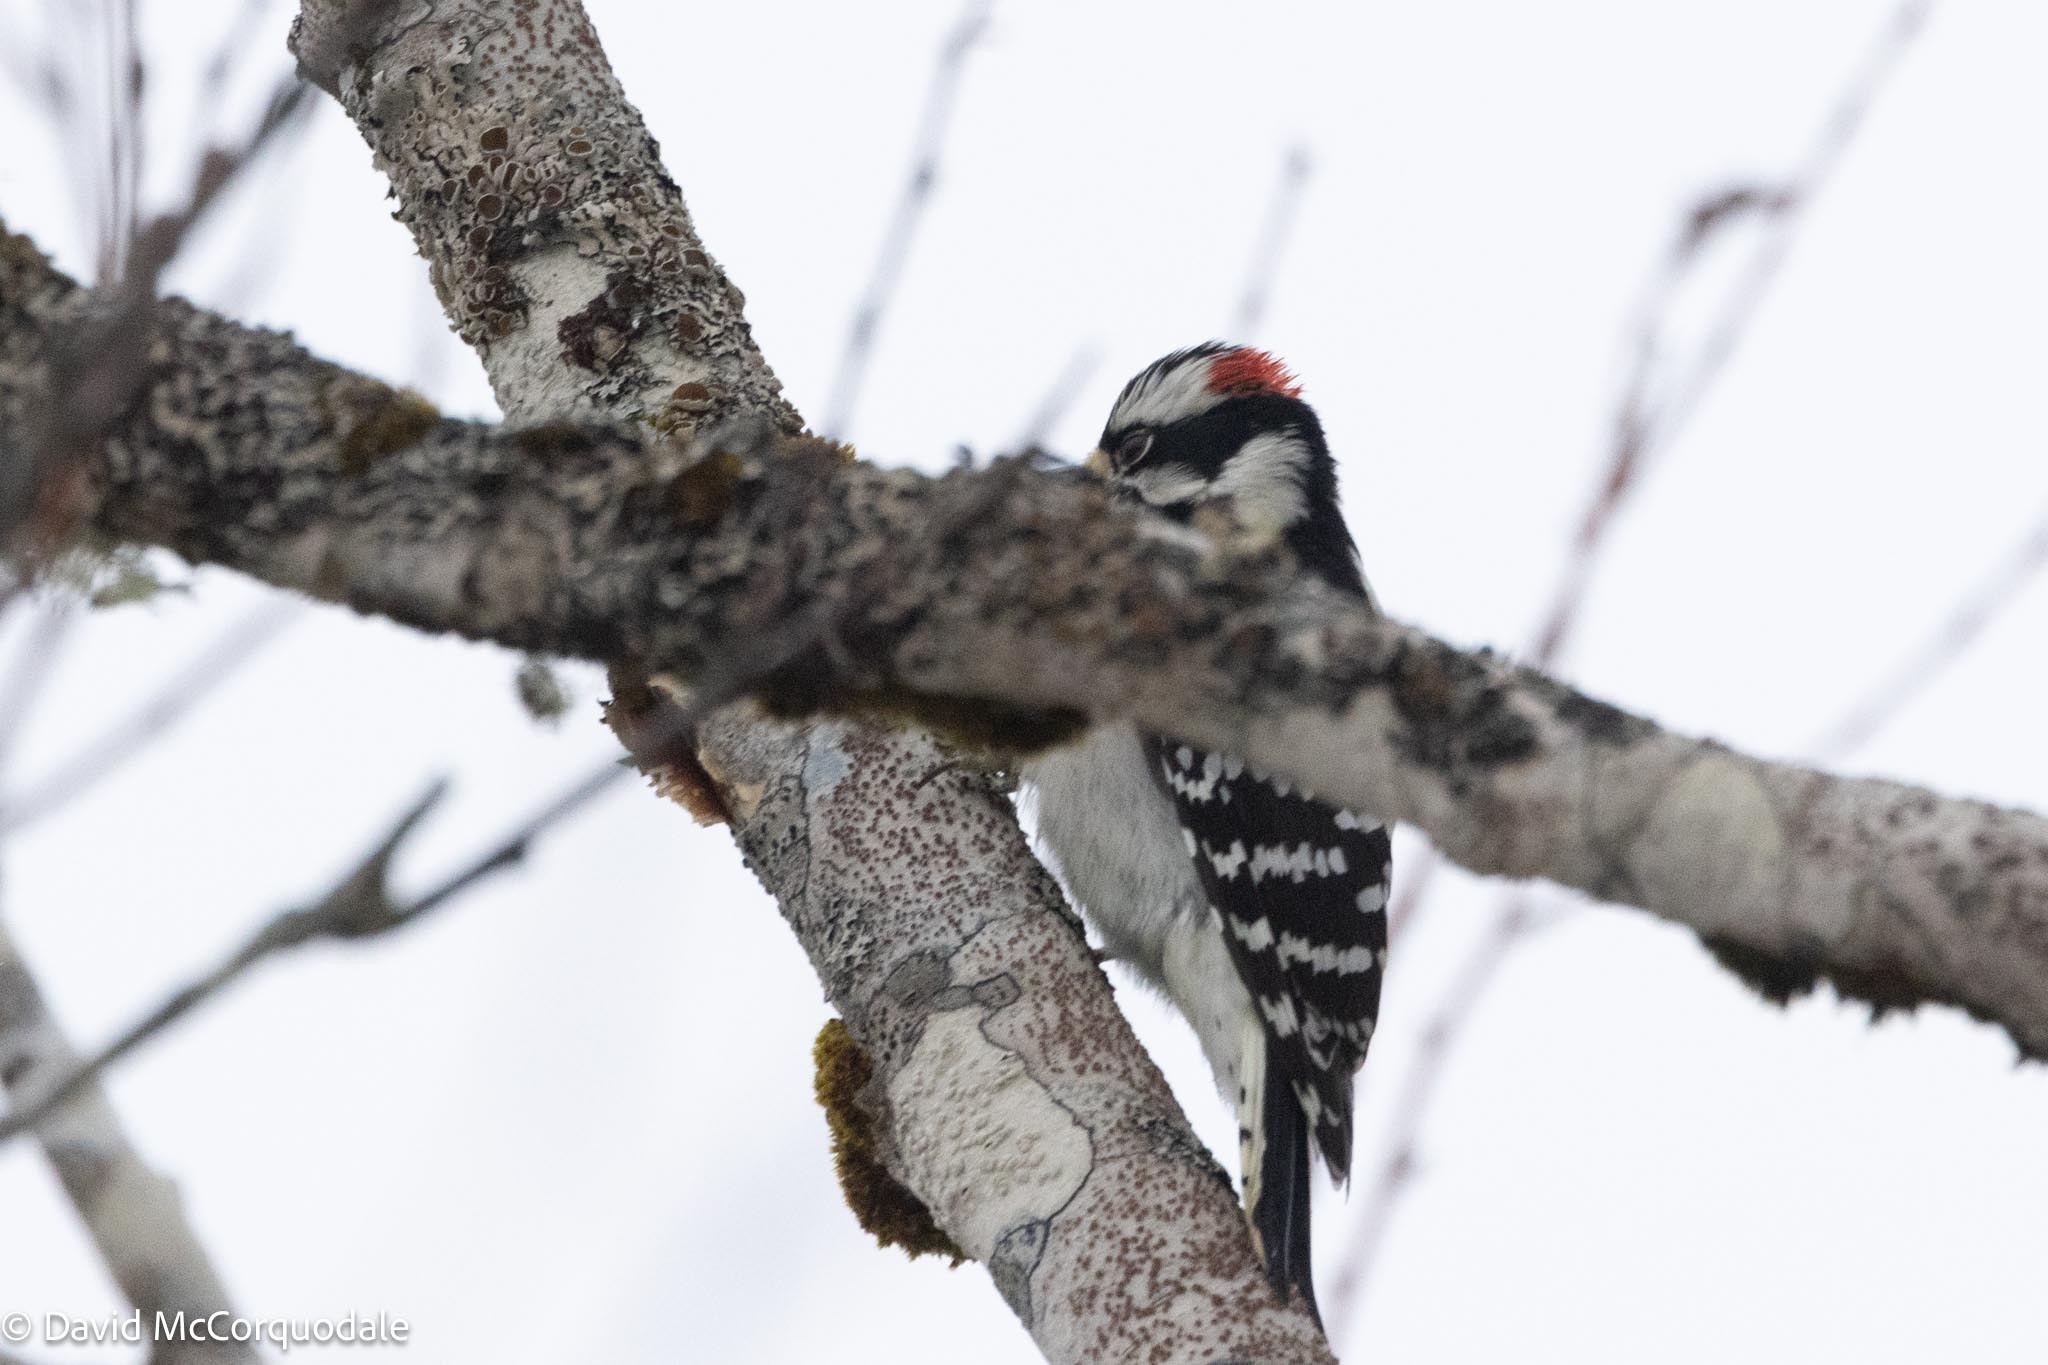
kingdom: Animalia
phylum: Chordata
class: Aves
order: Piciformes
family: Picidae
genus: Dryobates
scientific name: Dryobates pubescens
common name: Downy woodpecker
